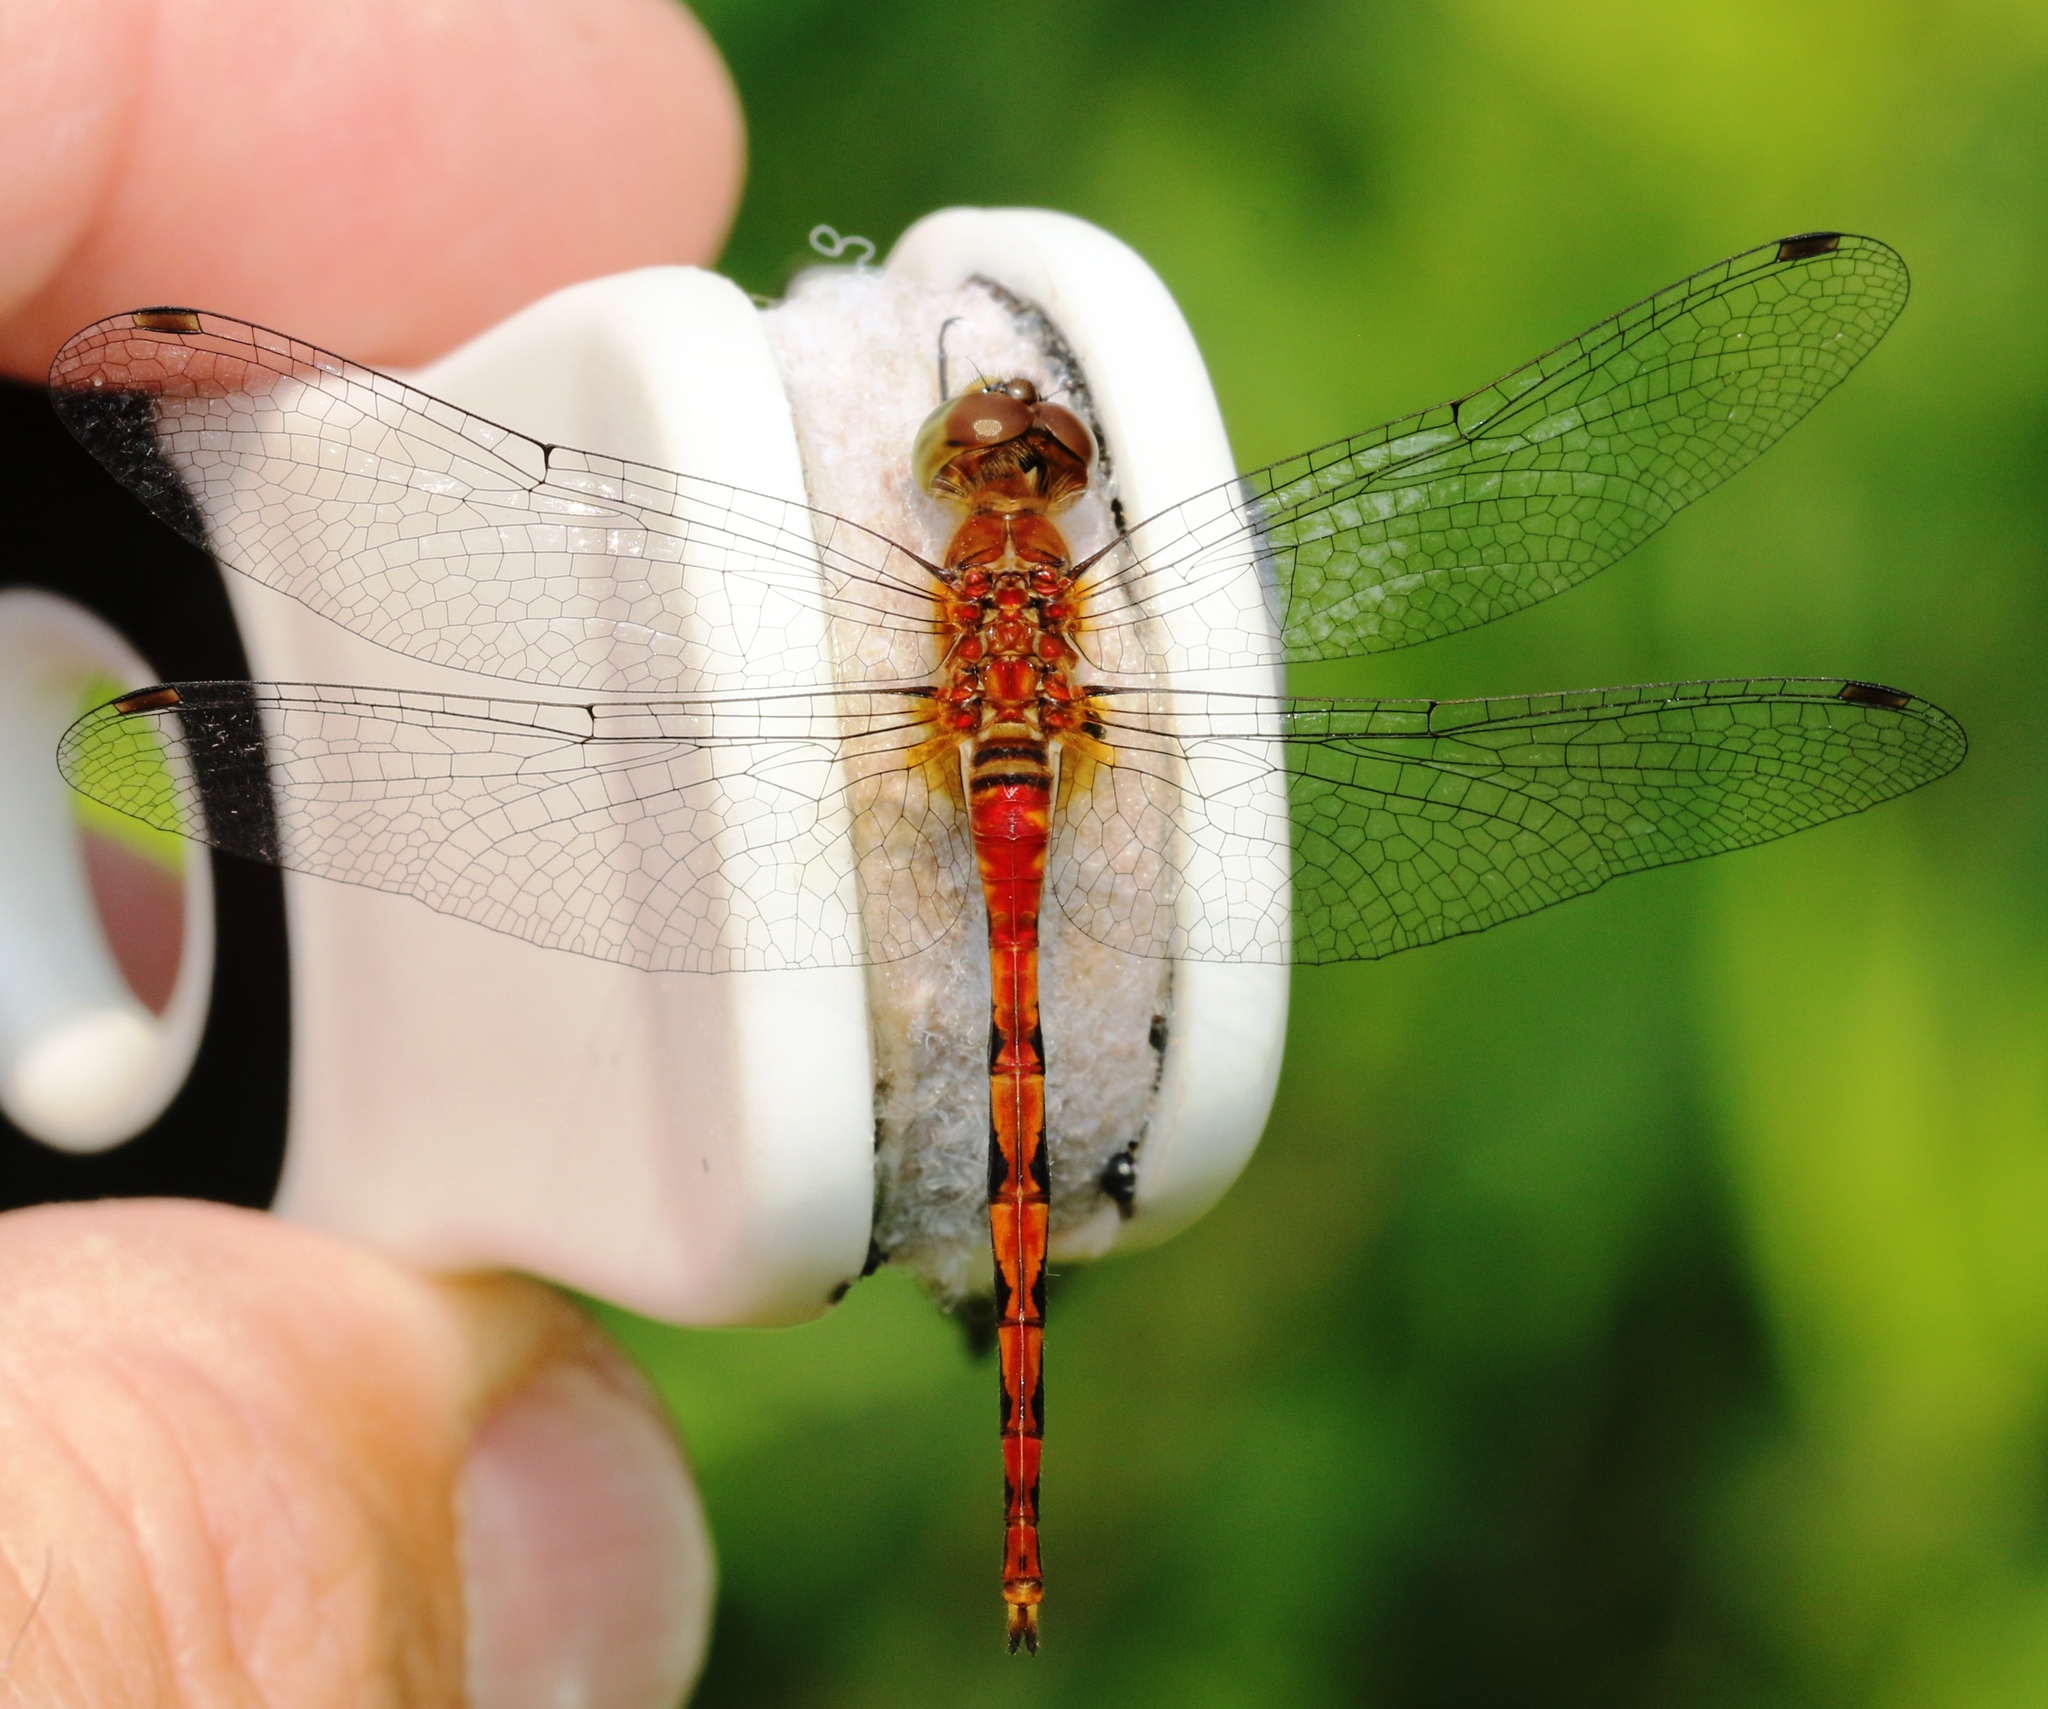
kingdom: Animalia
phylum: Arthropoda
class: Insecta
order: Odonata
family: Libellulidae
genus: Sympetrum
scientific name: Sympetrum obtrusum
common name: White-faced meadowhawk
